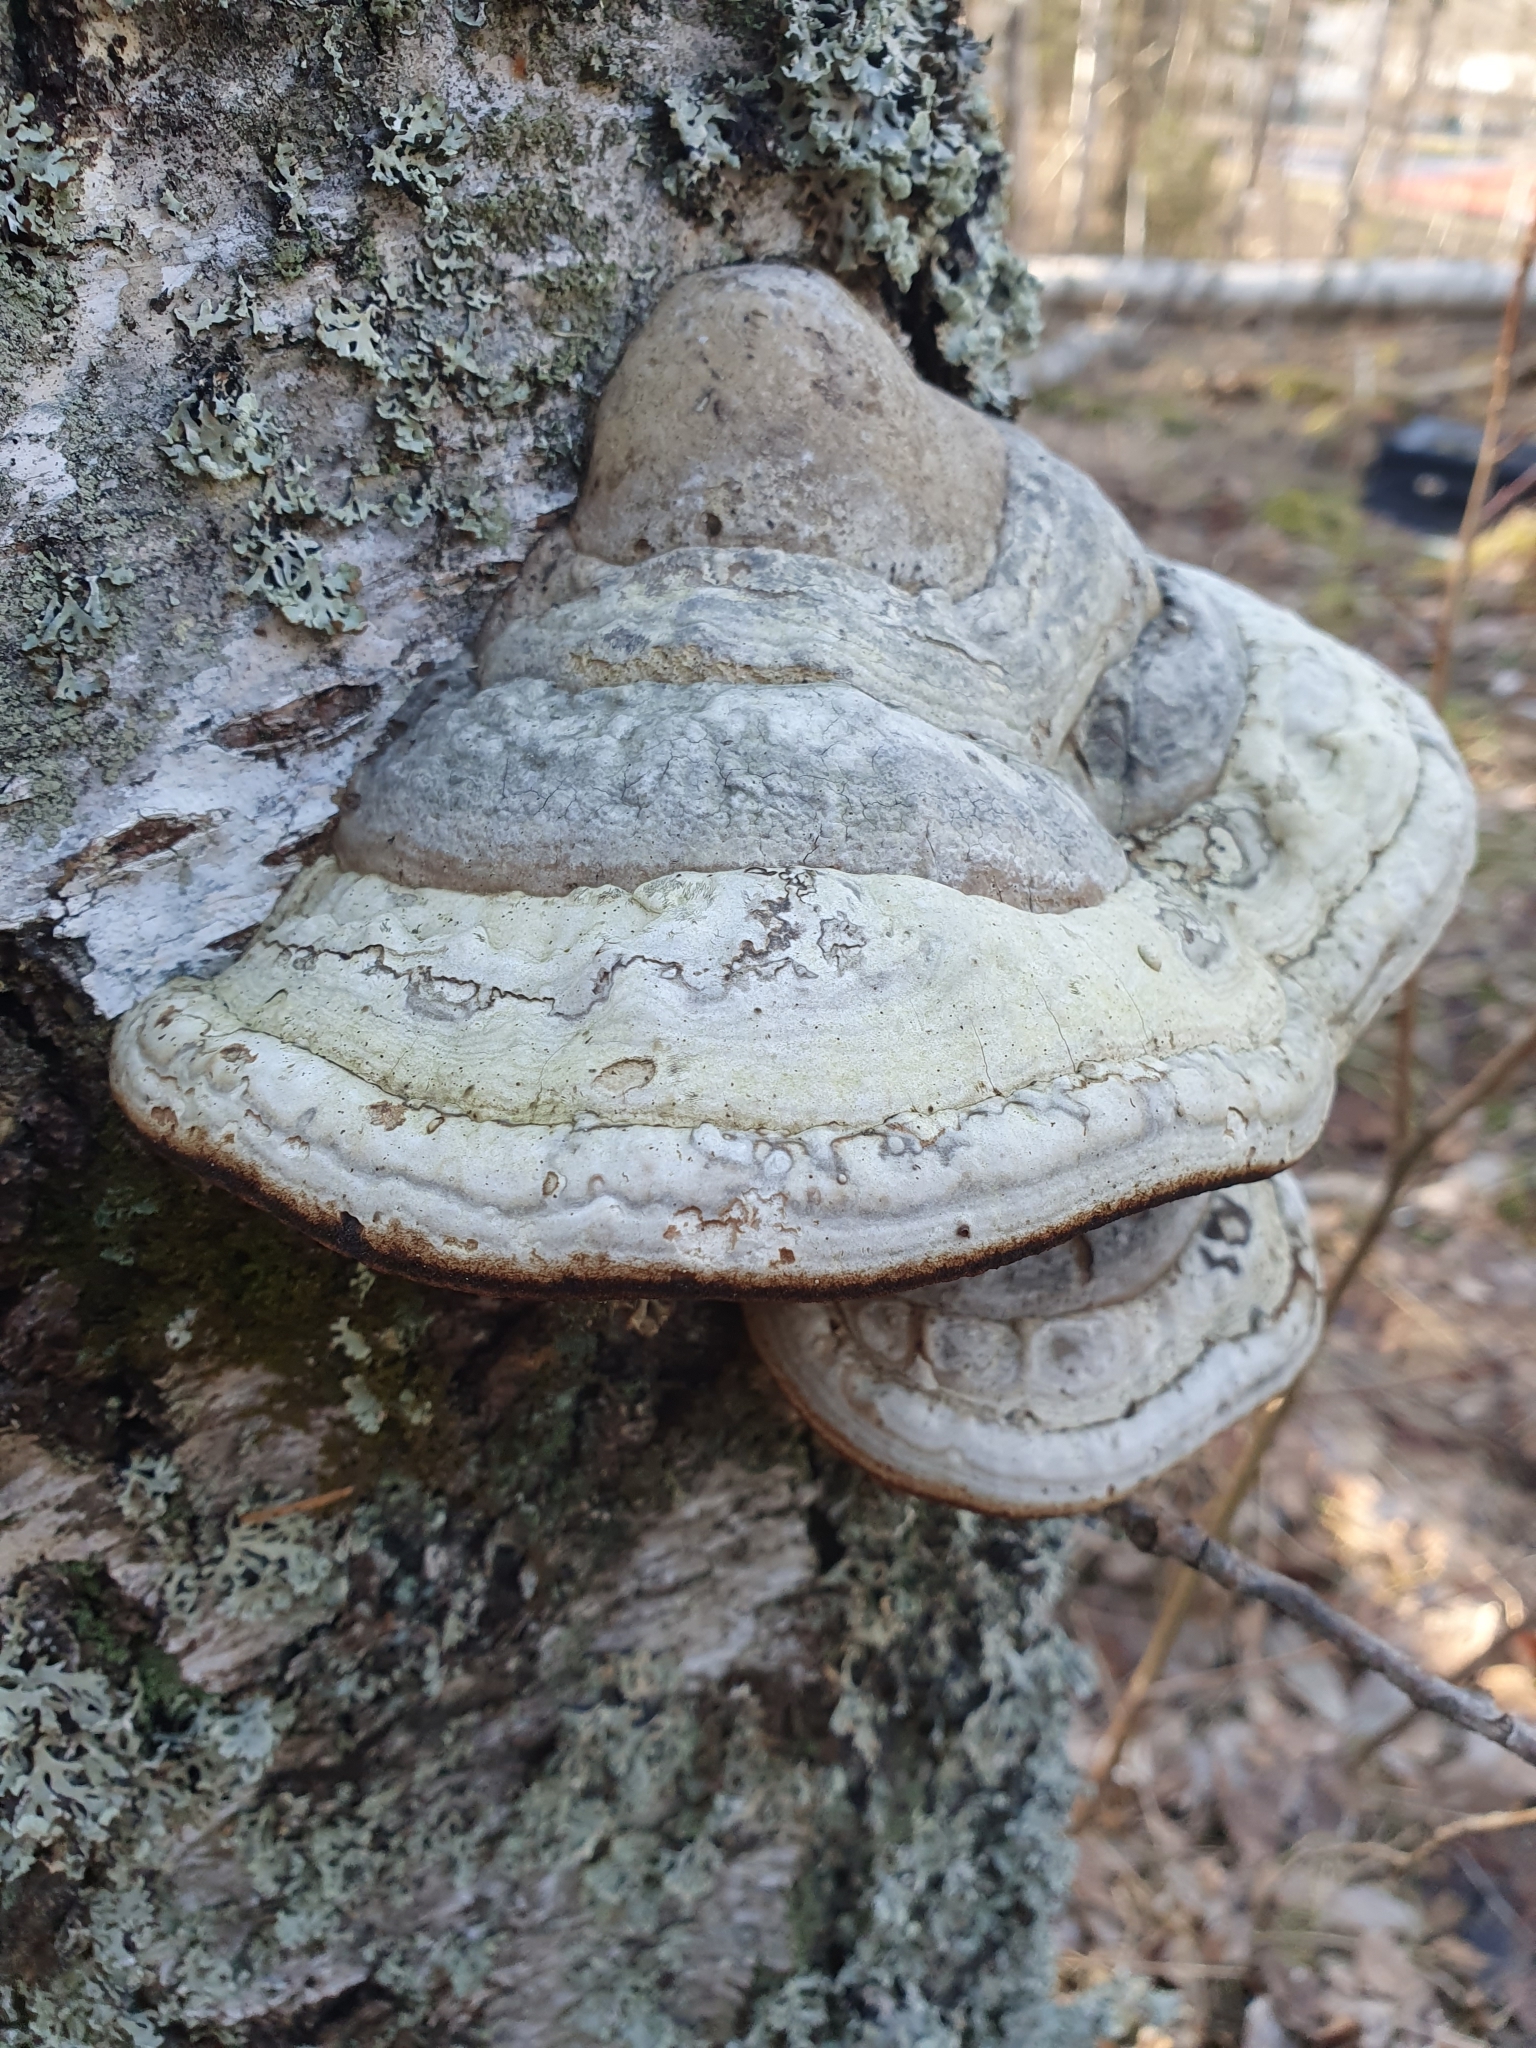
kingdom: Fungi
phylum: Basidiomycota
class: Agaricomycetes
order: Polyporales
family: Polyporaceae
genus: Fomes
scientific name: Fomes fomentarius
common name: Hoof fungus
